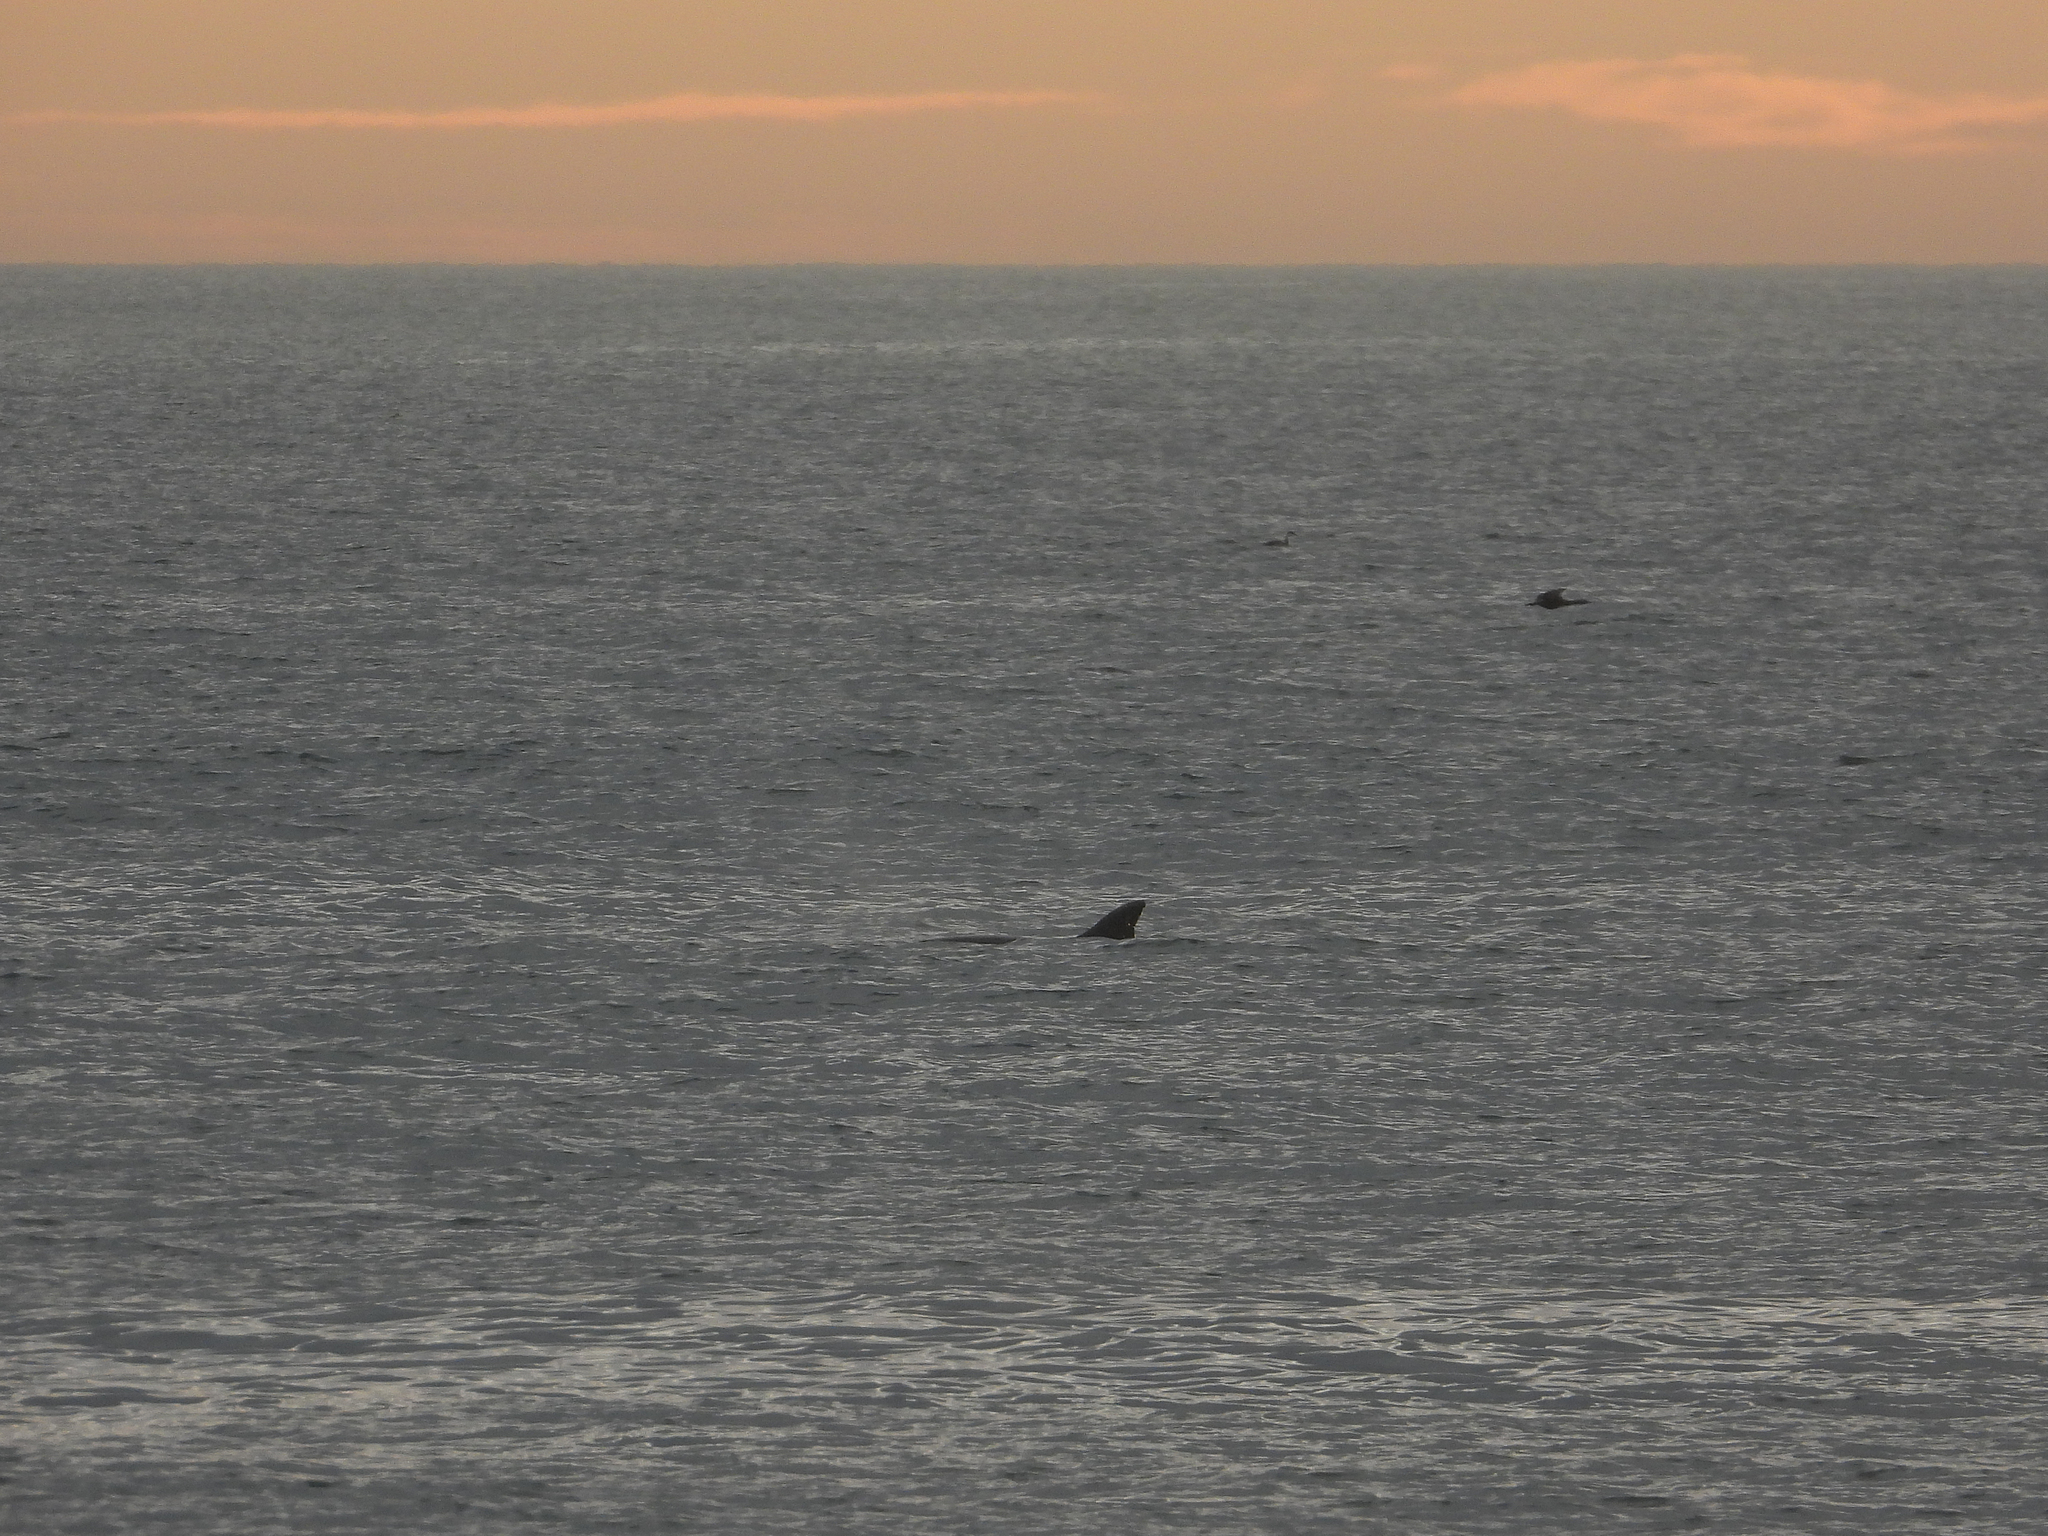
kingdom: Animalia
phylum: Chordata
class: Mammalia
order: Cetacea
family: Delphinidae
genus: Tursiops
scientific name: Tursiops truncatus
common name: Bottlenose dolphin
